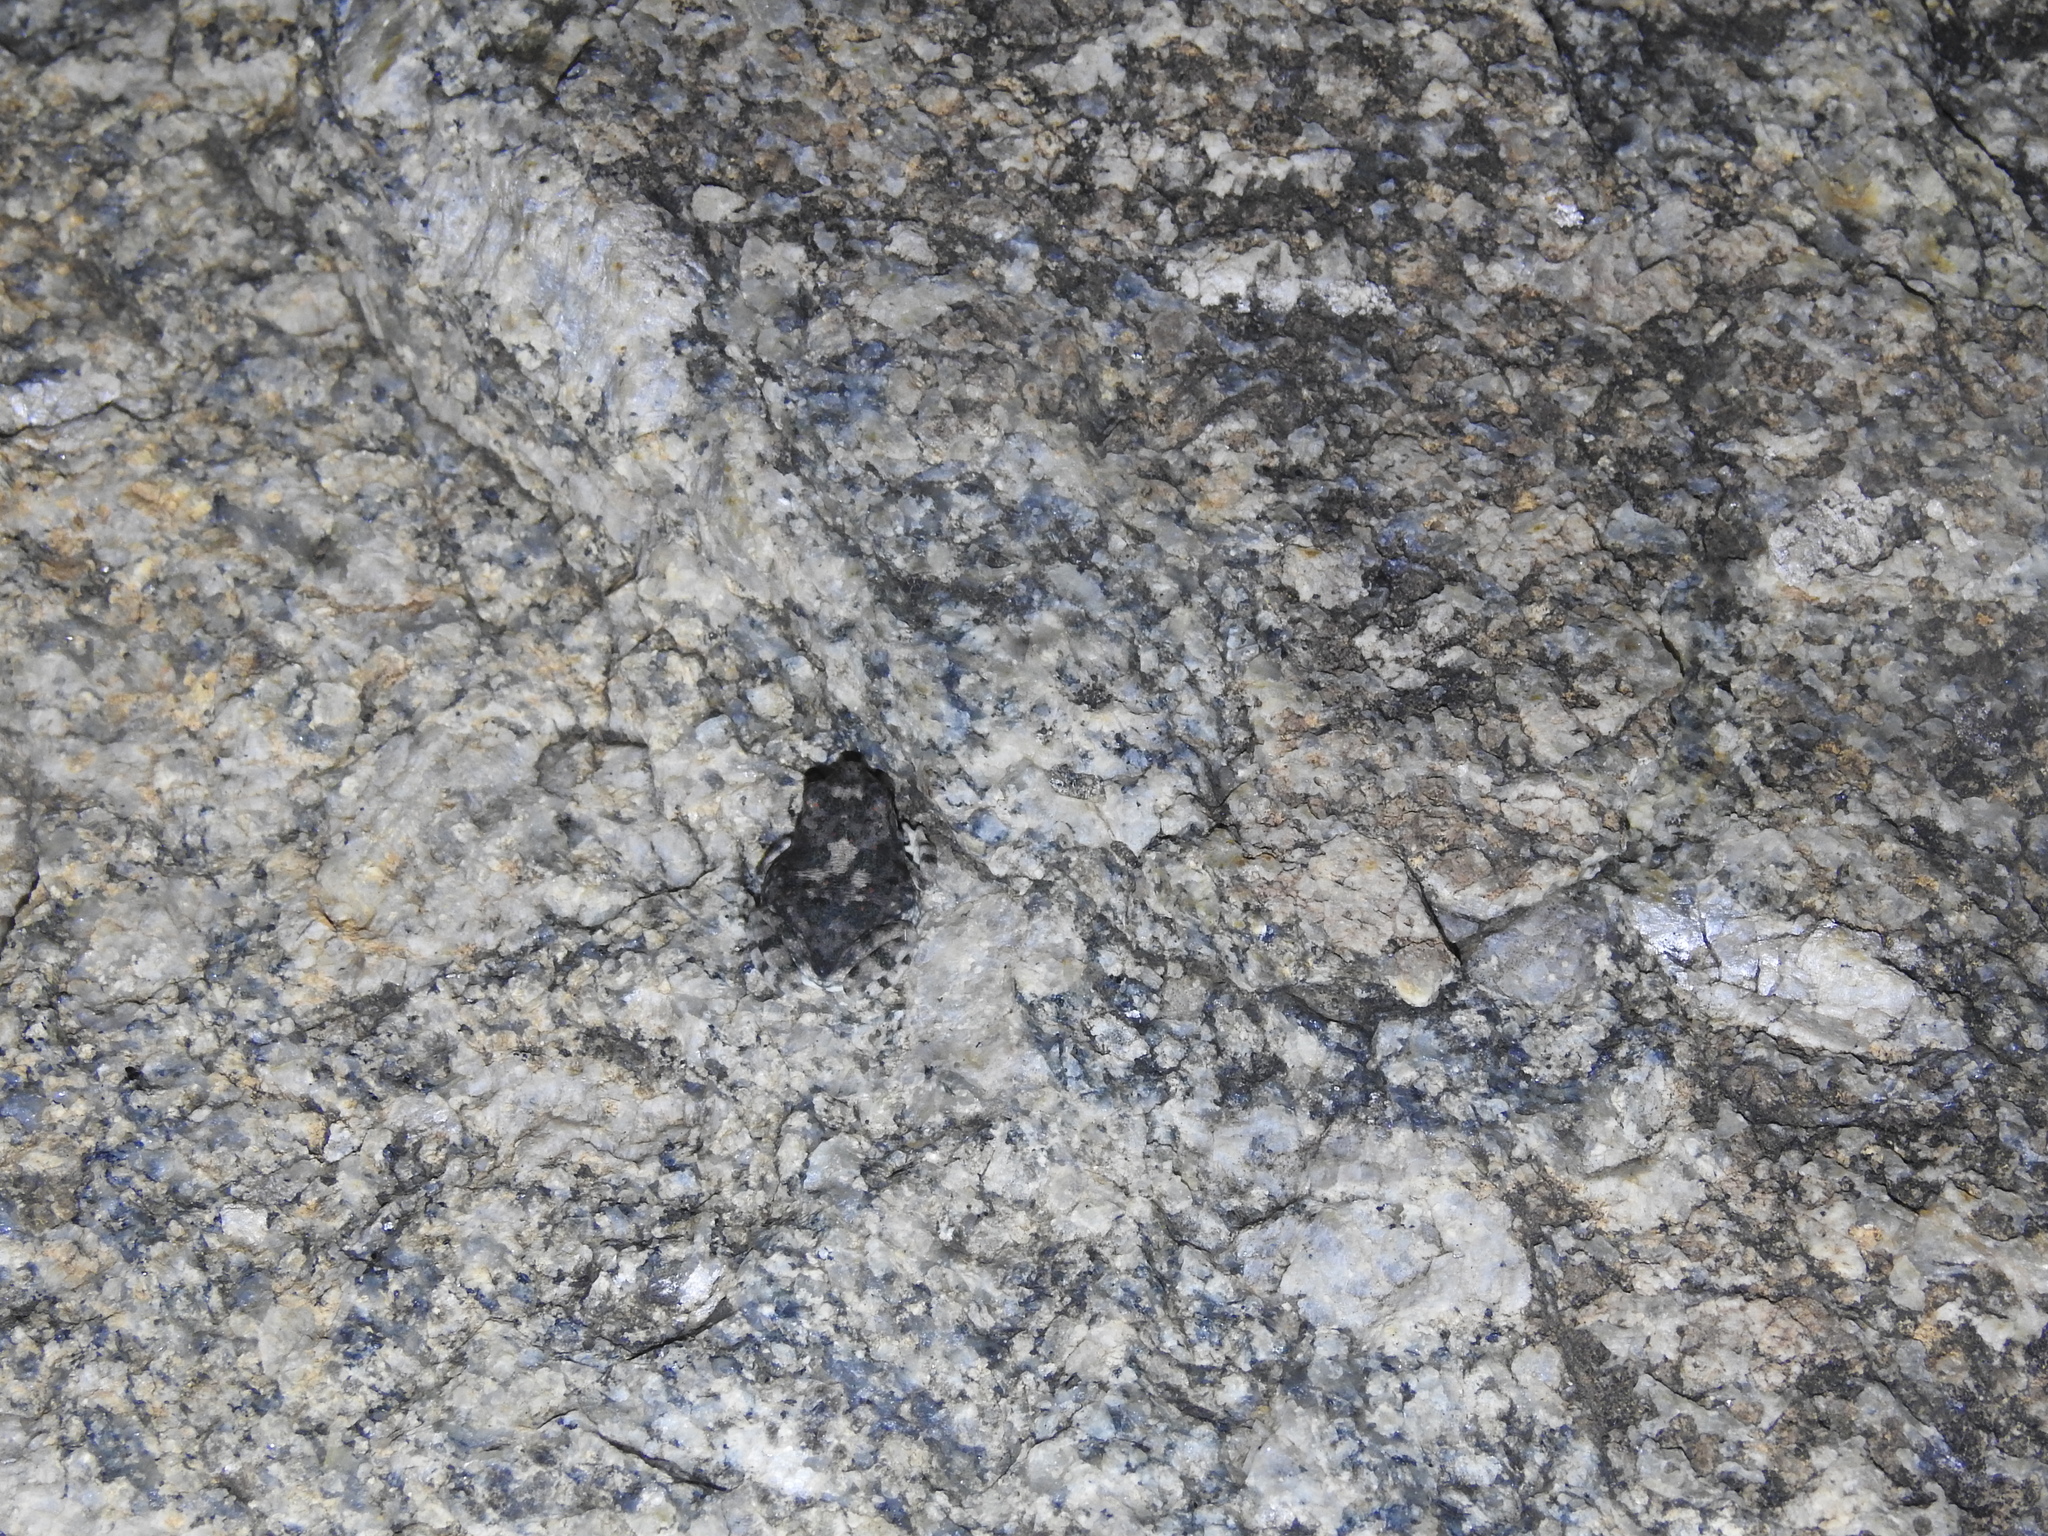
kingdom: Animalia
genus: Firouzophrynus
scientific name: Firouzophrynus
